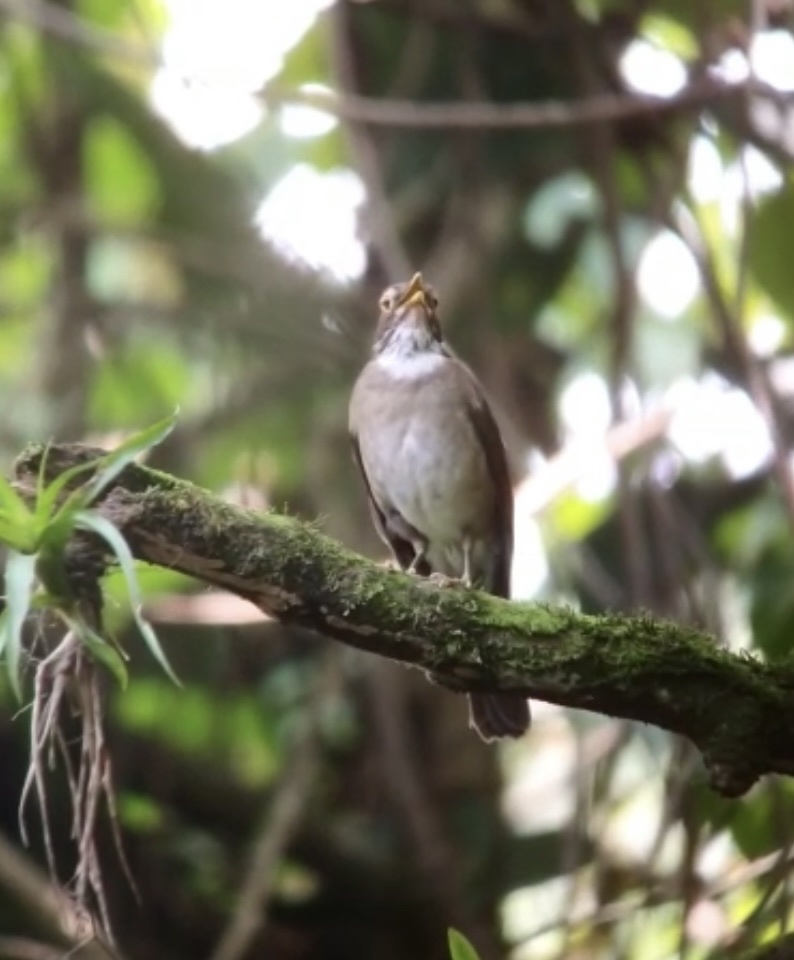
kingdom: Animalia
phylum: Chordata
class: Aves
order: Passeriformes
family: Turdidae
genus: Turdus
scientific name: Turdus assimilis
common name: White-throated thrush
